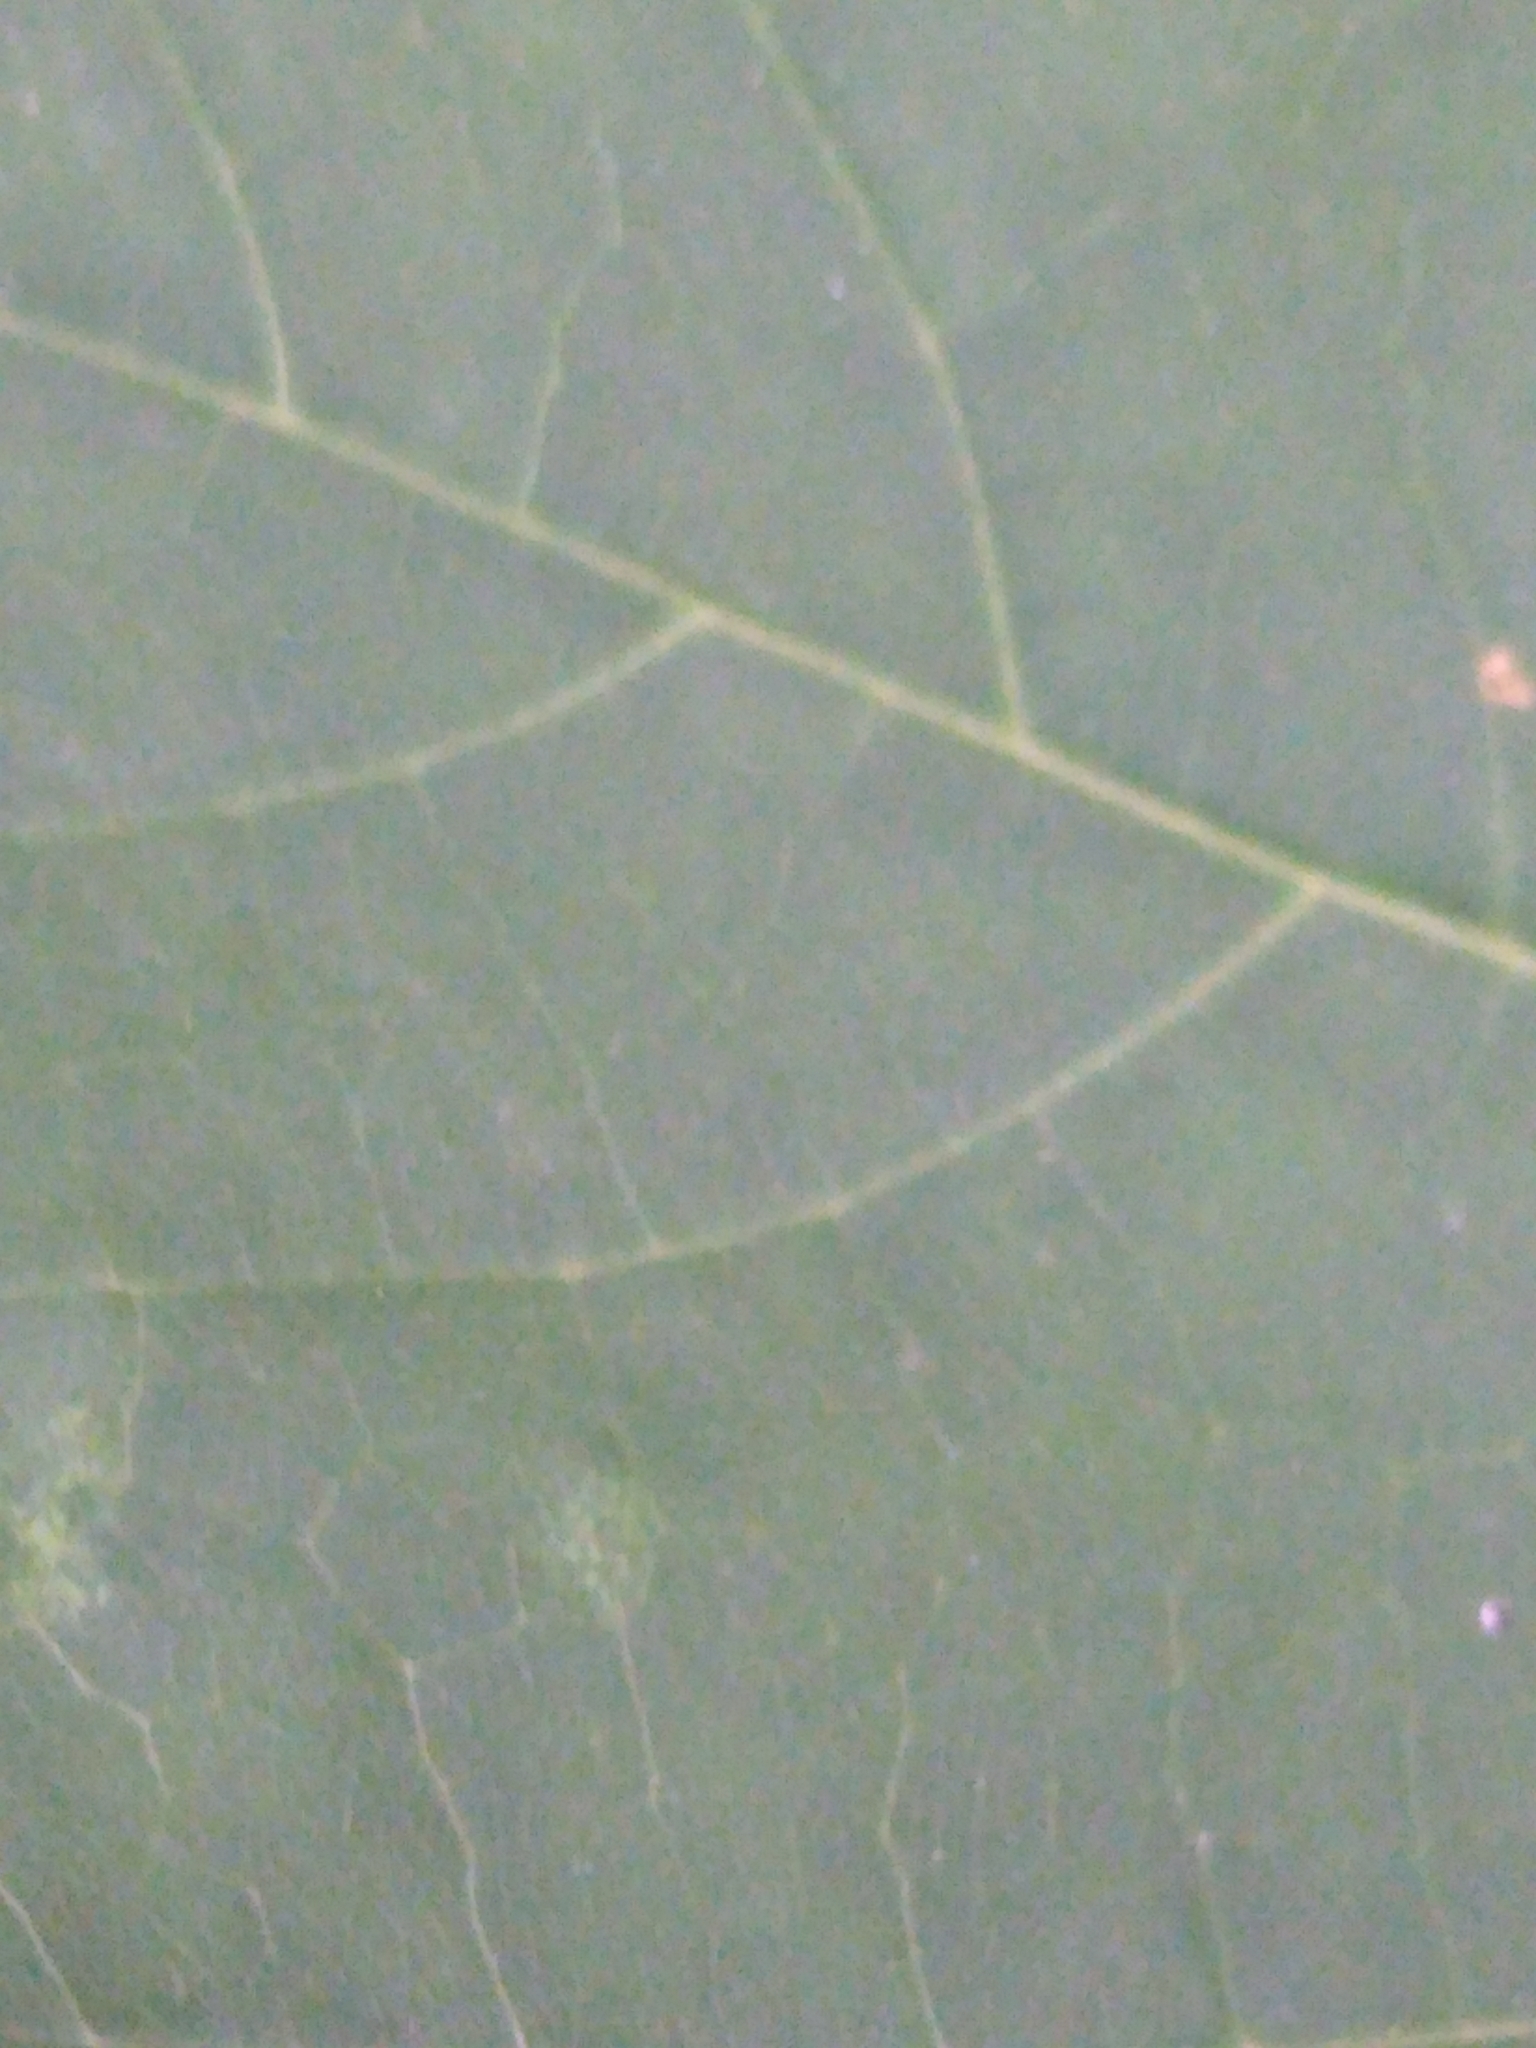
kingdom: Plantae
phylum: Tracheophyta
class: Magnoliopsida
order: Sapindales
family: Sapindaceae
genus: Acer
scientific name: Acer platanoides
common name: Norway maple
